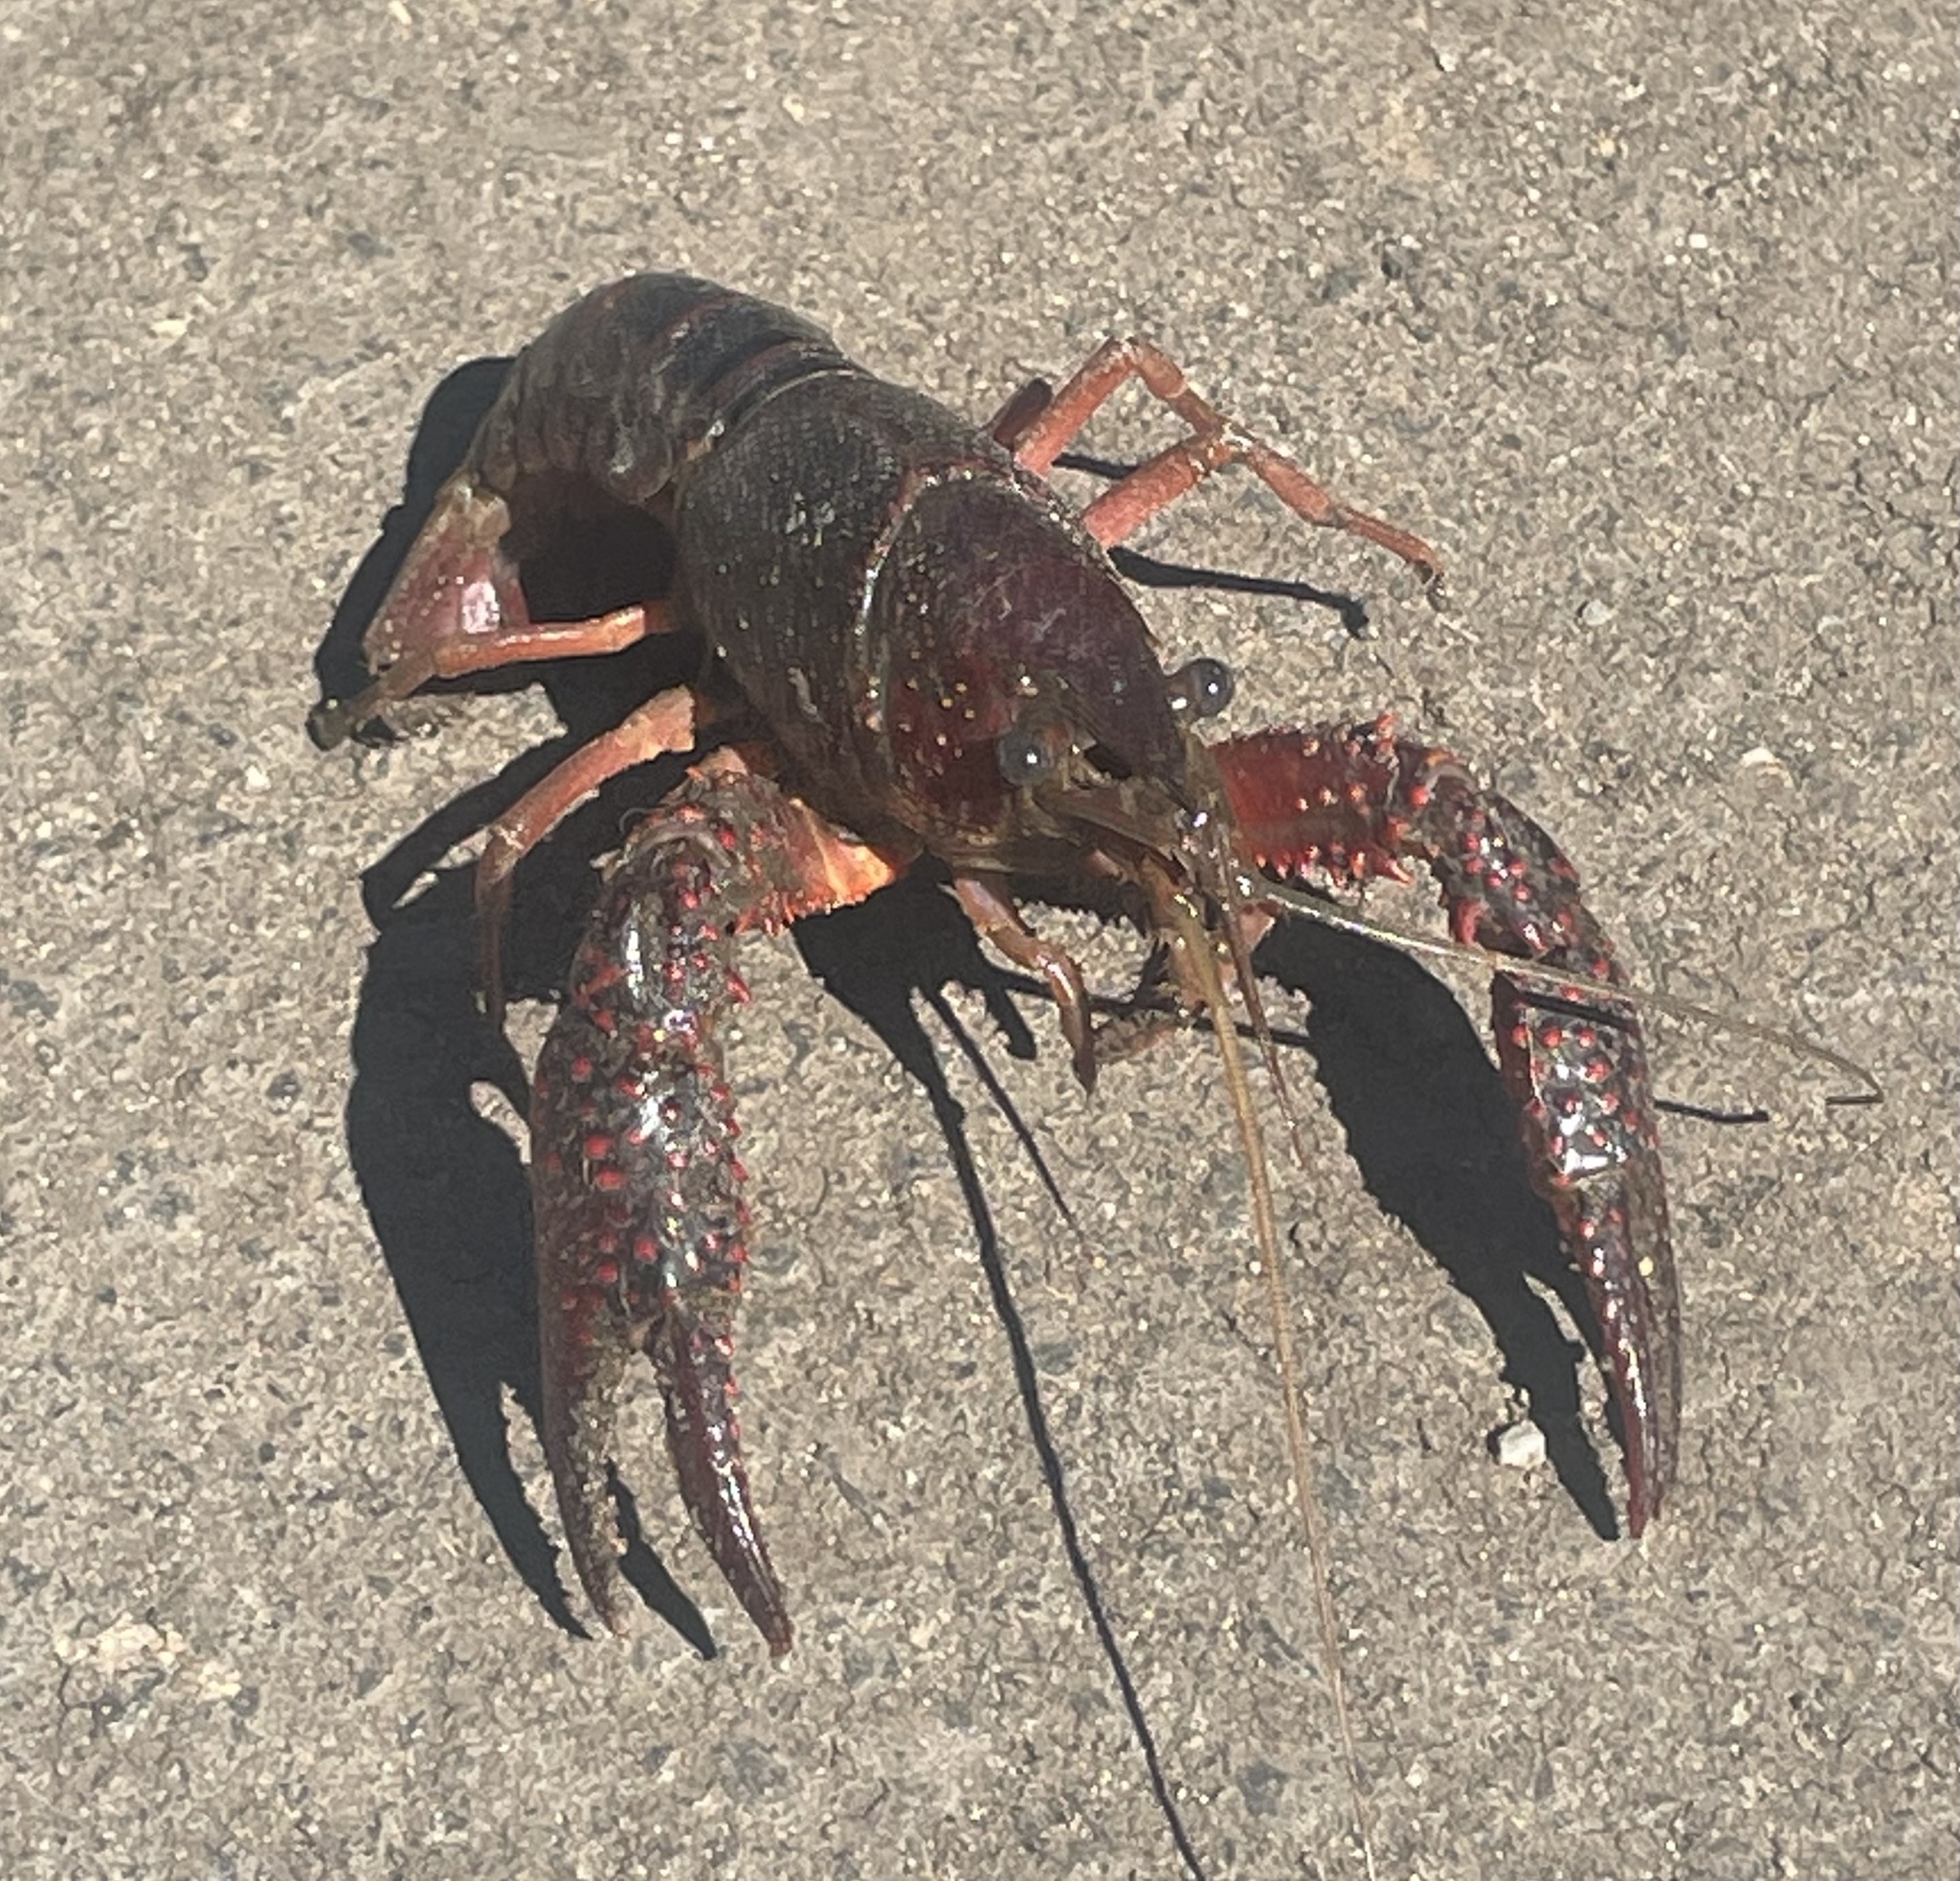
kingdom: Animalia
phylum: Arthropoda
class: Malacostraca
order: Decapoda
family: Cambaridae
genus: Procambarus
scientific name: Procambarus clarkii
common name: Red swamp crayfish
